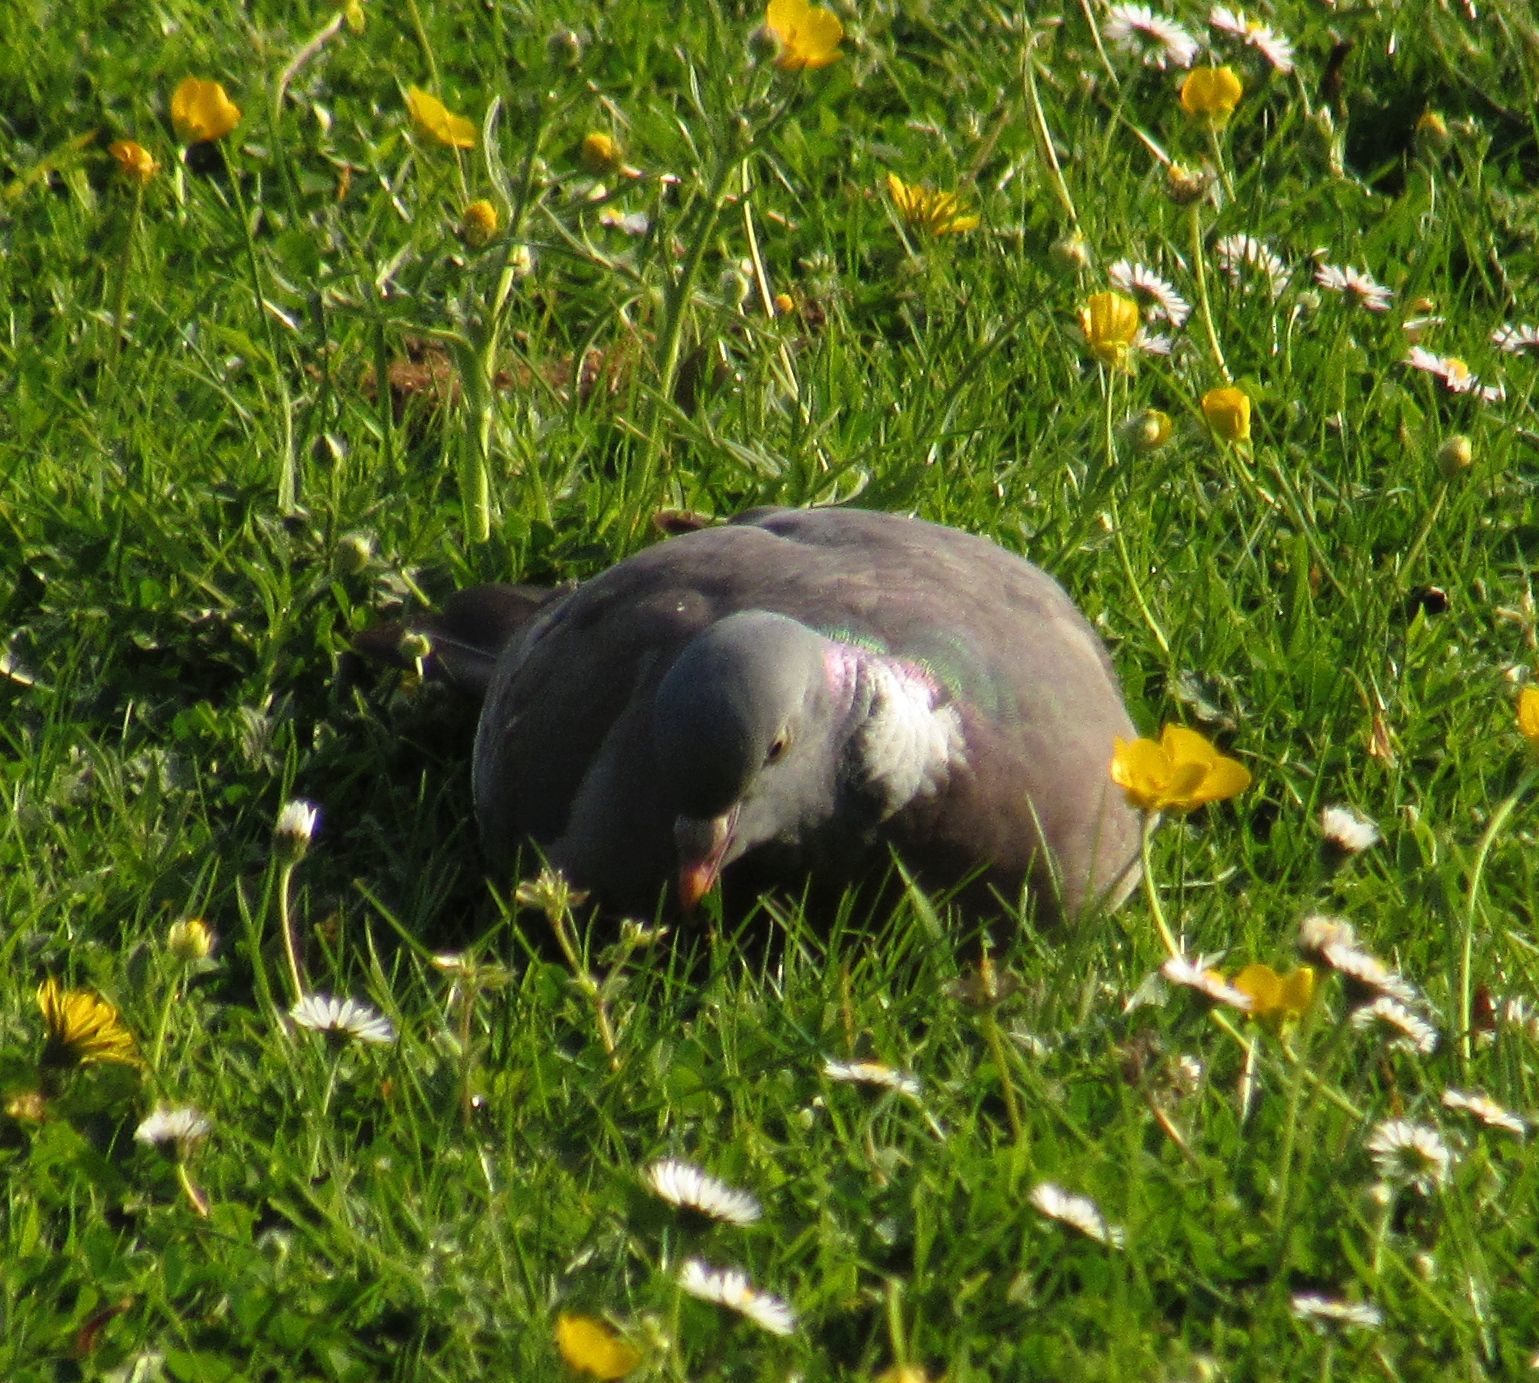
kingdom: Animalia
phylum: Chordata
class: Aves
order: Columbiformes
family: Columbidae
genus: Columba
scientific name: Columba palumbus
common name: Common wood pigeon
